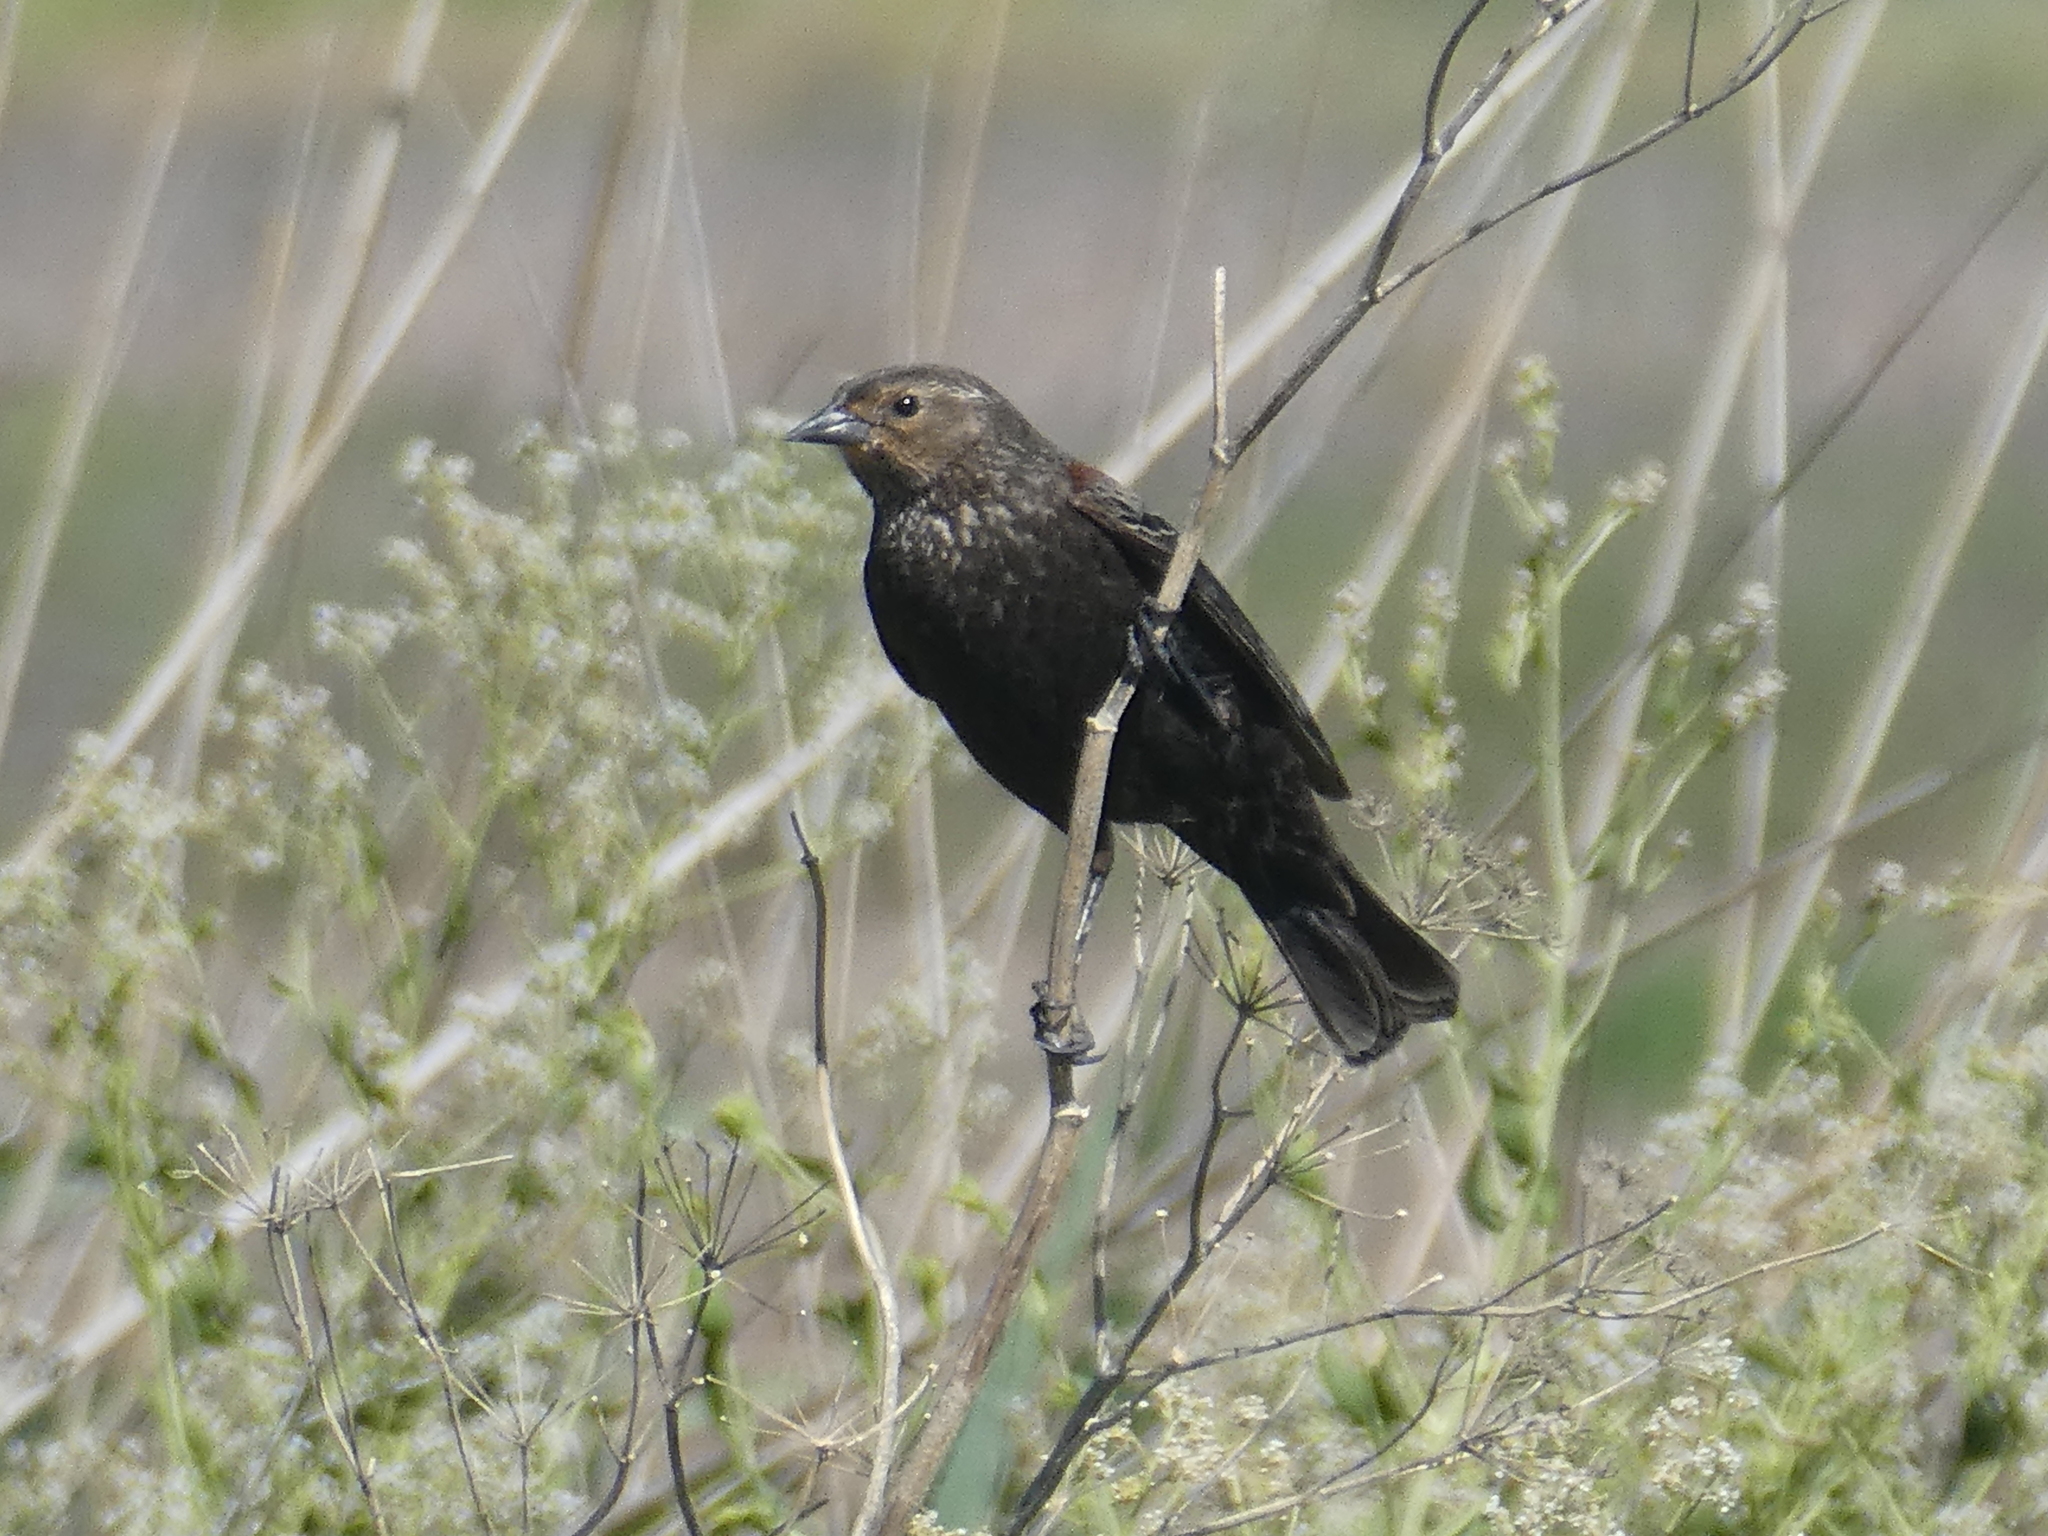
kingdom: Animalia
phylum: Chordata
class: Aves
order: Passeriformes
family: Icteridae
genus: Agelaius
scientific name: Agelaius phoeniceus
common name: Red-winged blackbird
